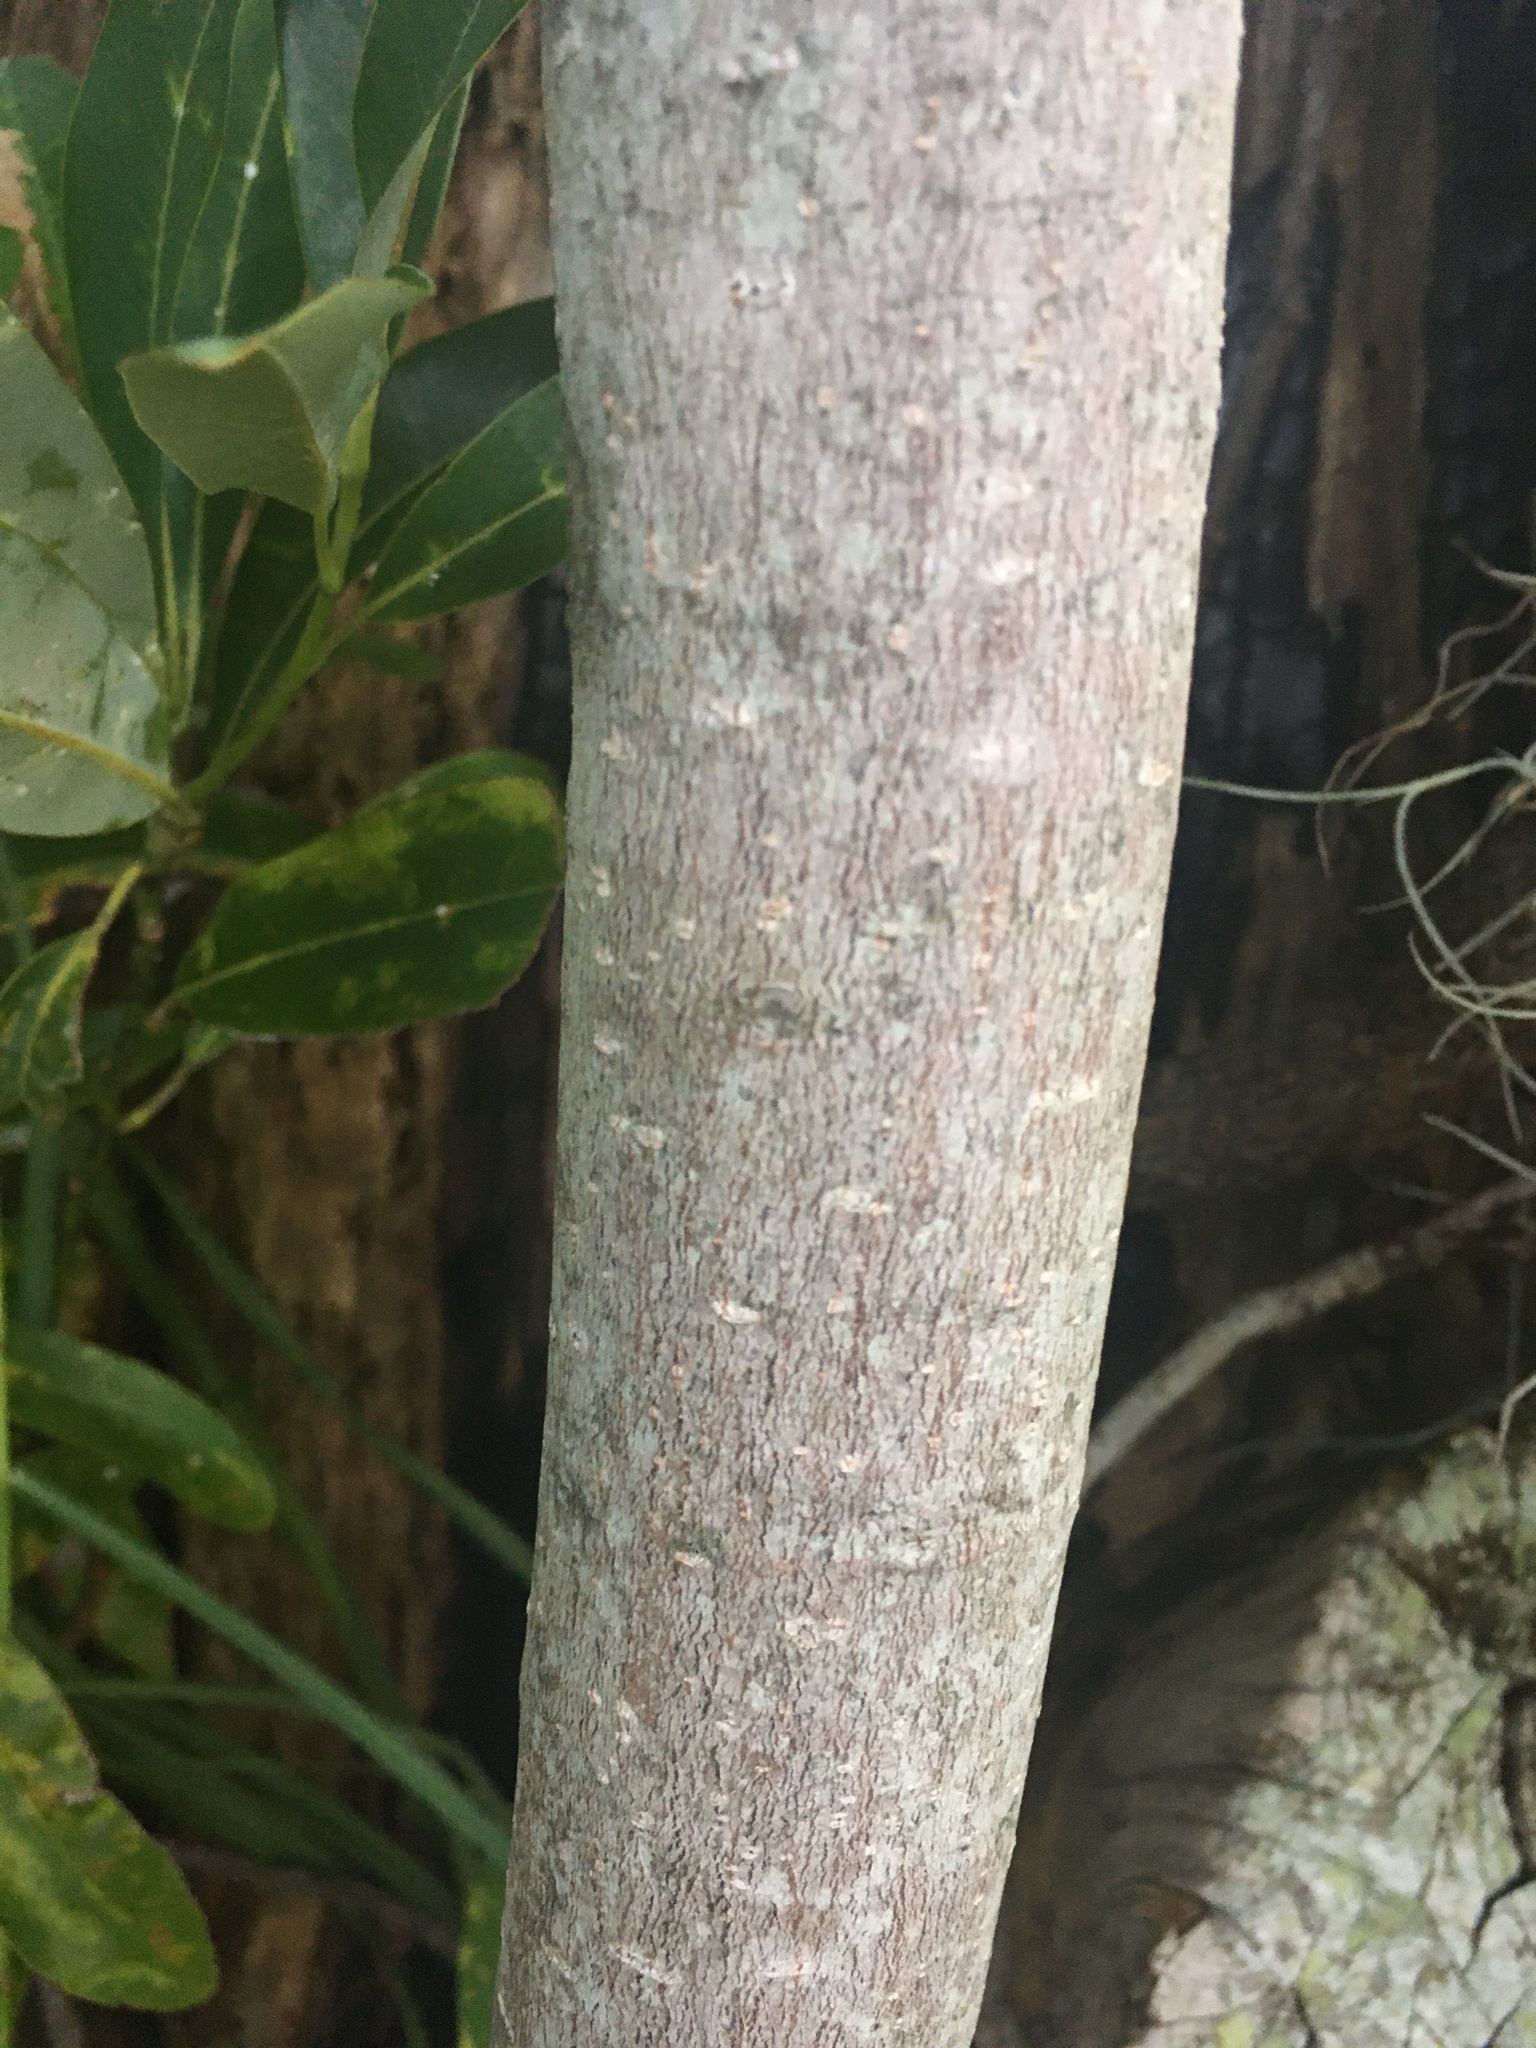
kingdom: Plantae
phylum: Tracheophyta
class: Magnoliopsida
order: Magnoliales
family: Magnoliaceae
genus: Magnolia
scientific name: Magnolia virginiana
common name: Swamp bay
